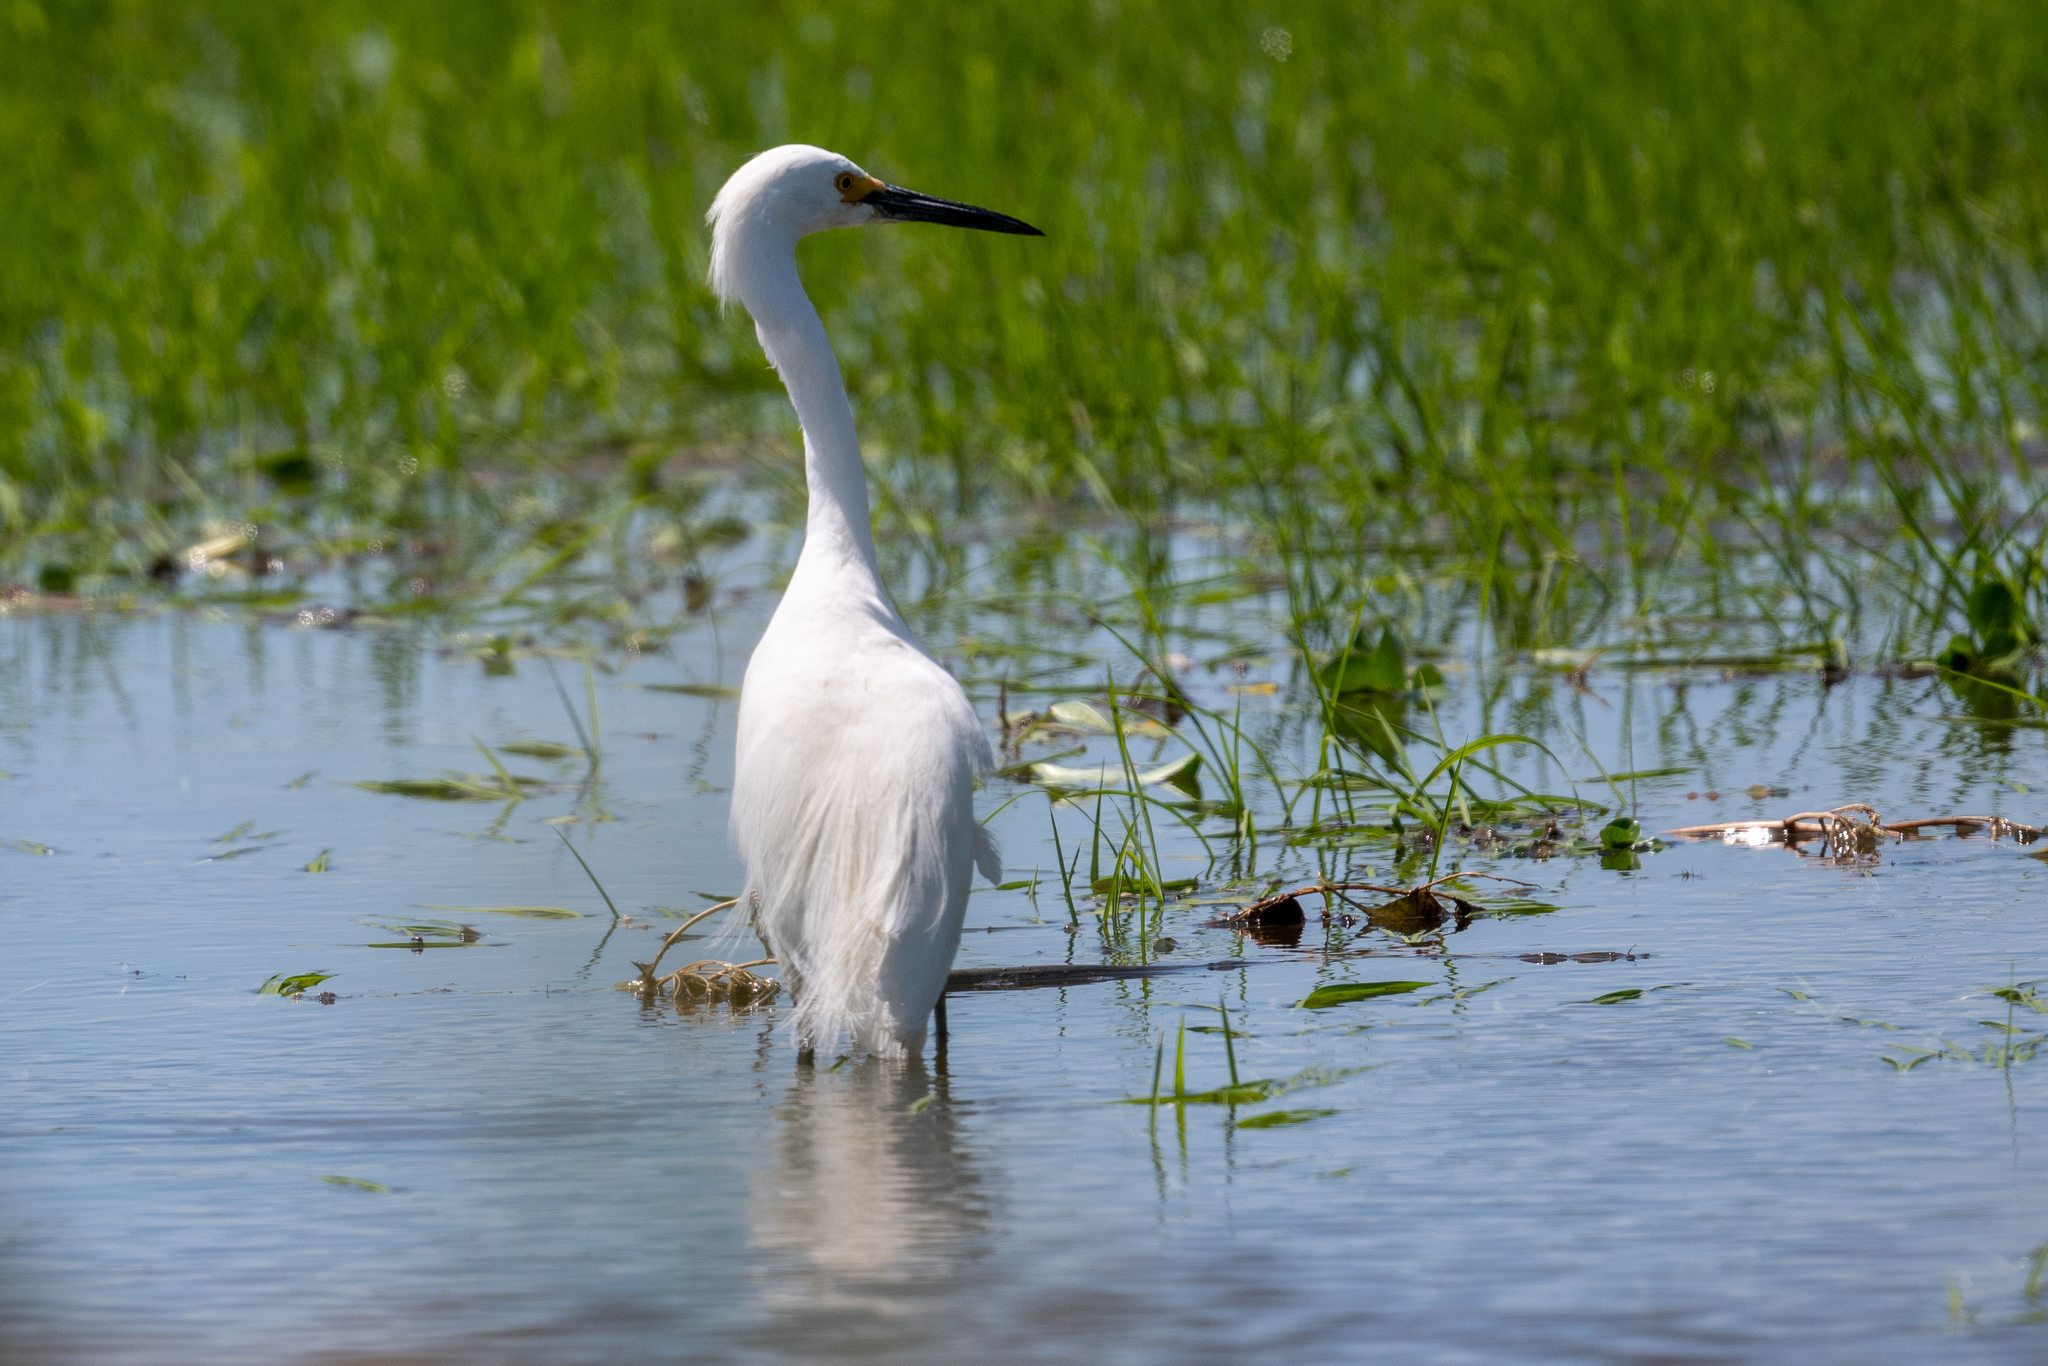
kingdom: Animalia
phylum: Chordata
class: Aves
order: Pelecaniformes
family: Ardeidae
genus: Egretta
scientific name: Egretta thula
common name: Snowy egret
